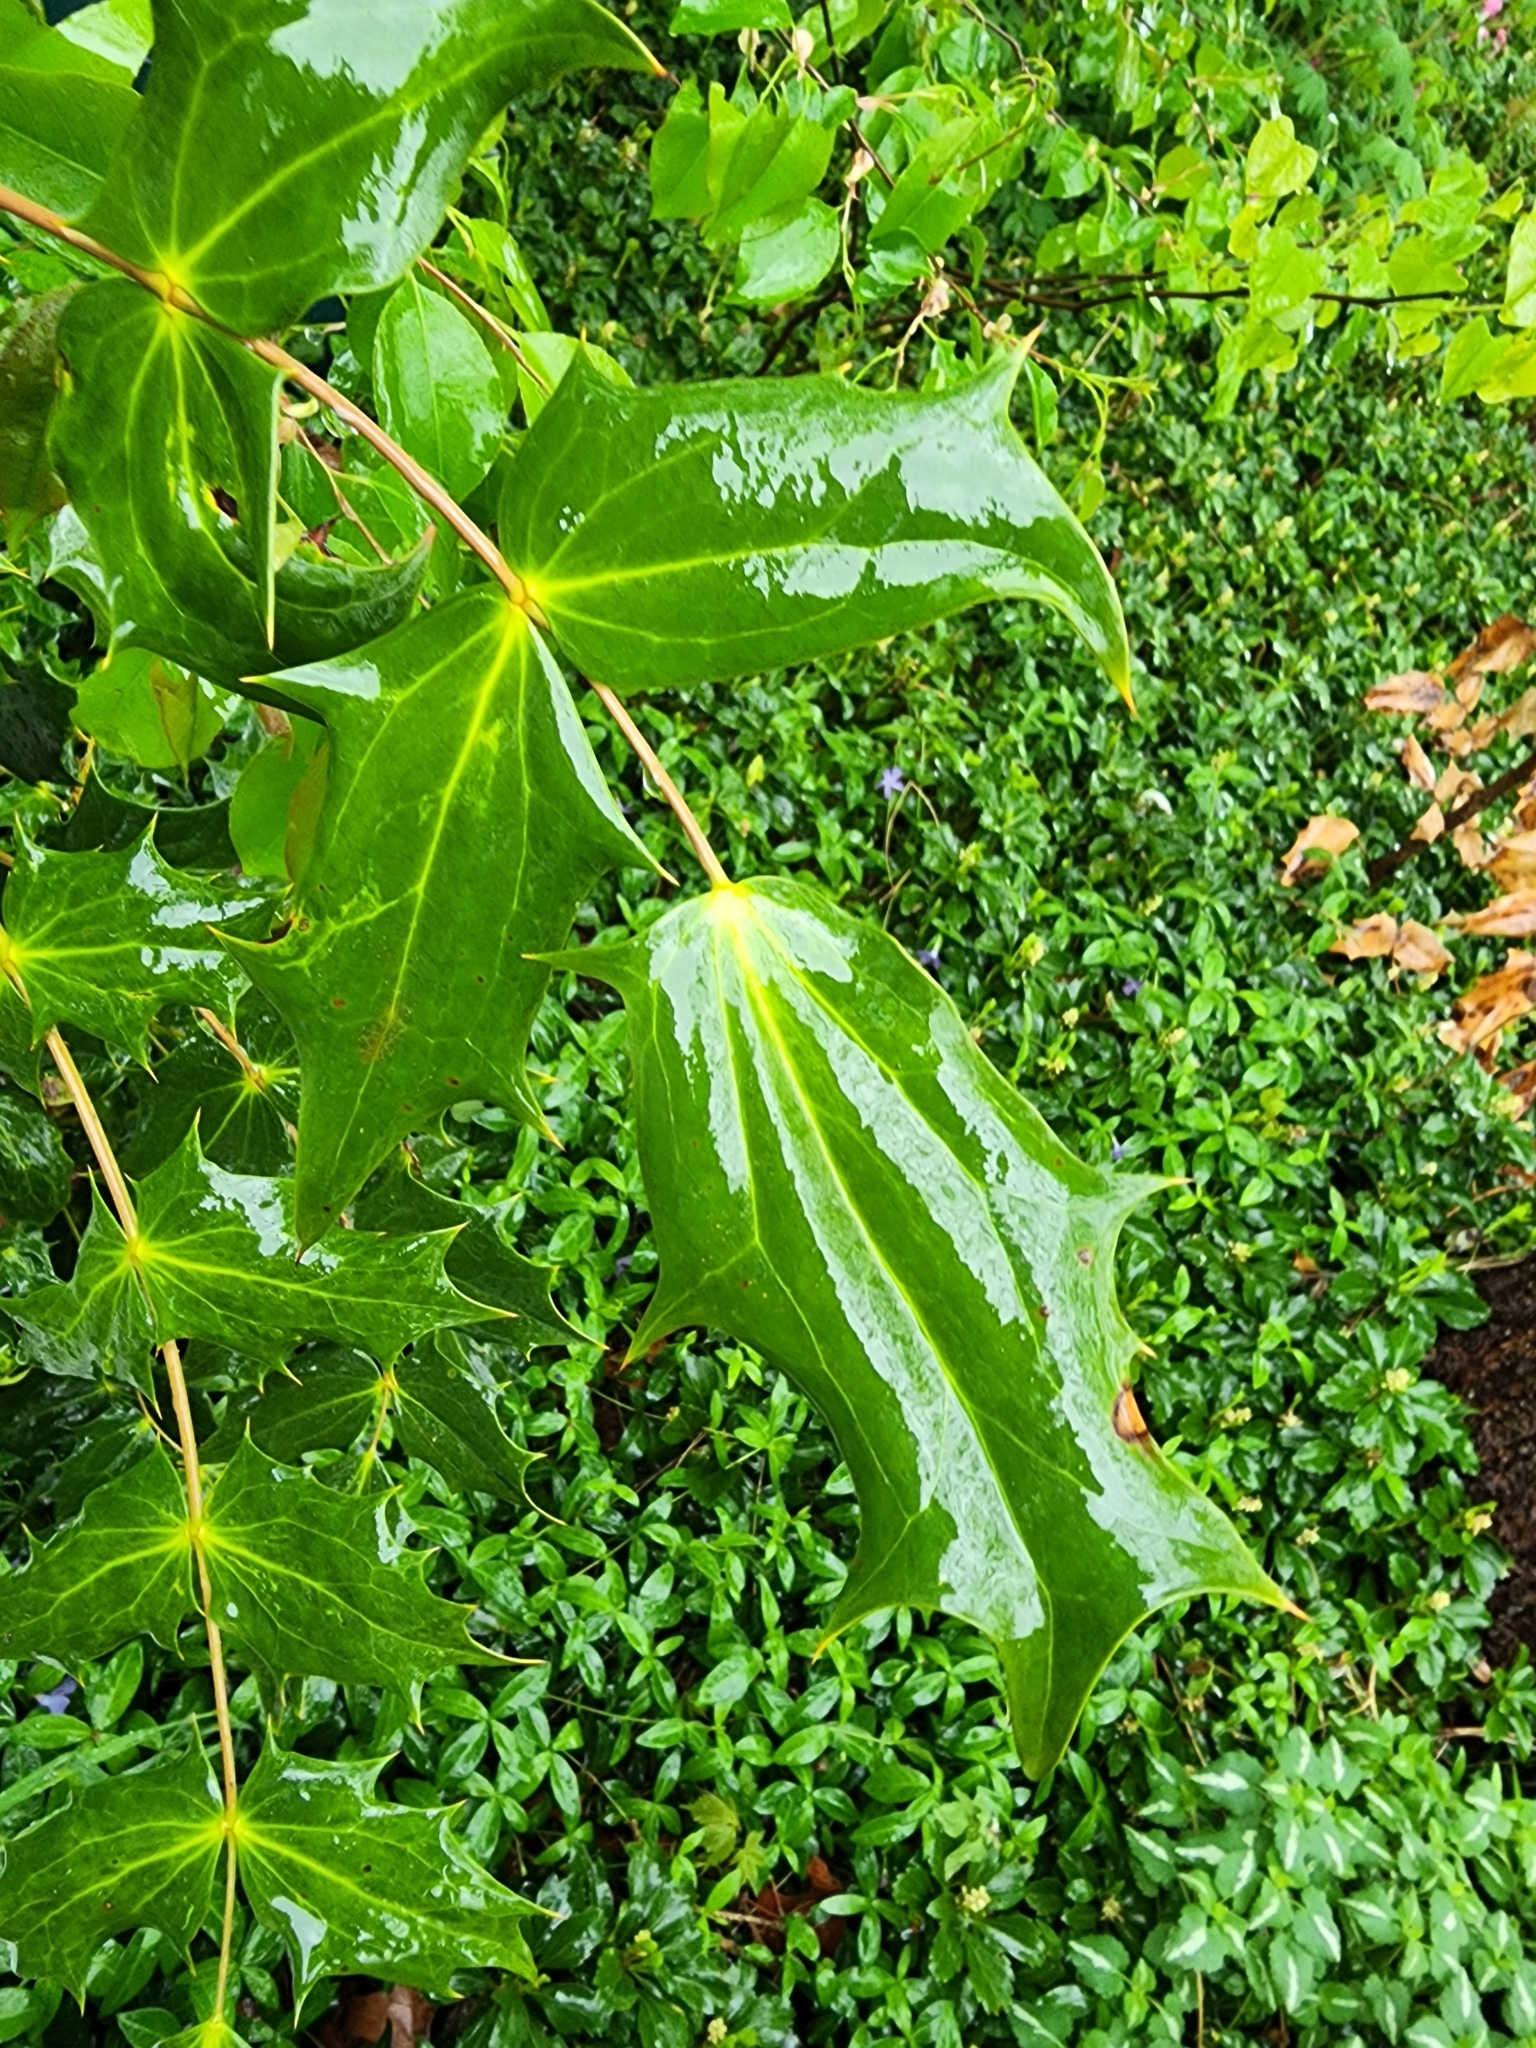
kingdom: Plantae
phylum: Tracheophyta
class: Magnoliopsida
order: Ranunculales
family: Berberidaceae
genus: Mahonia
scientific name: Mahonia bealei
